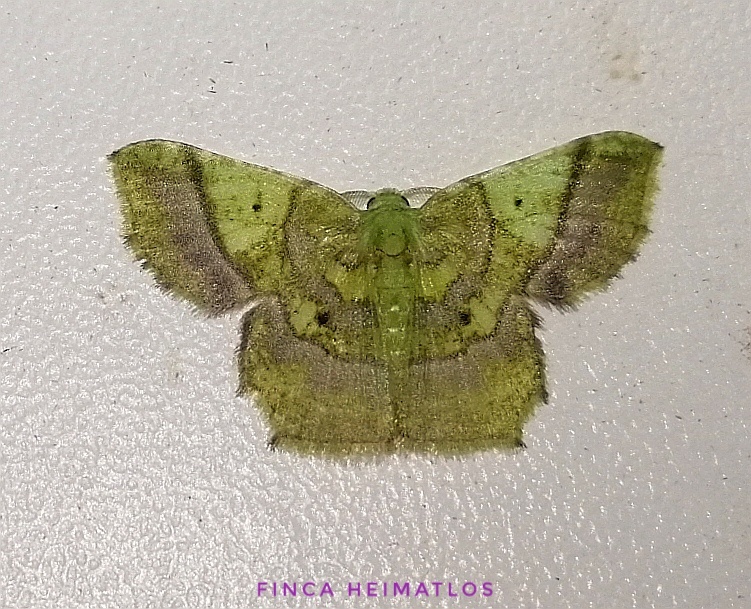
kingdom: Animalia
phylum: Arthropoda
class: Insecta
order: Lepidoptera
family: Geometridae
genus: Neagathia
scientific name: Neagathia corruptata
